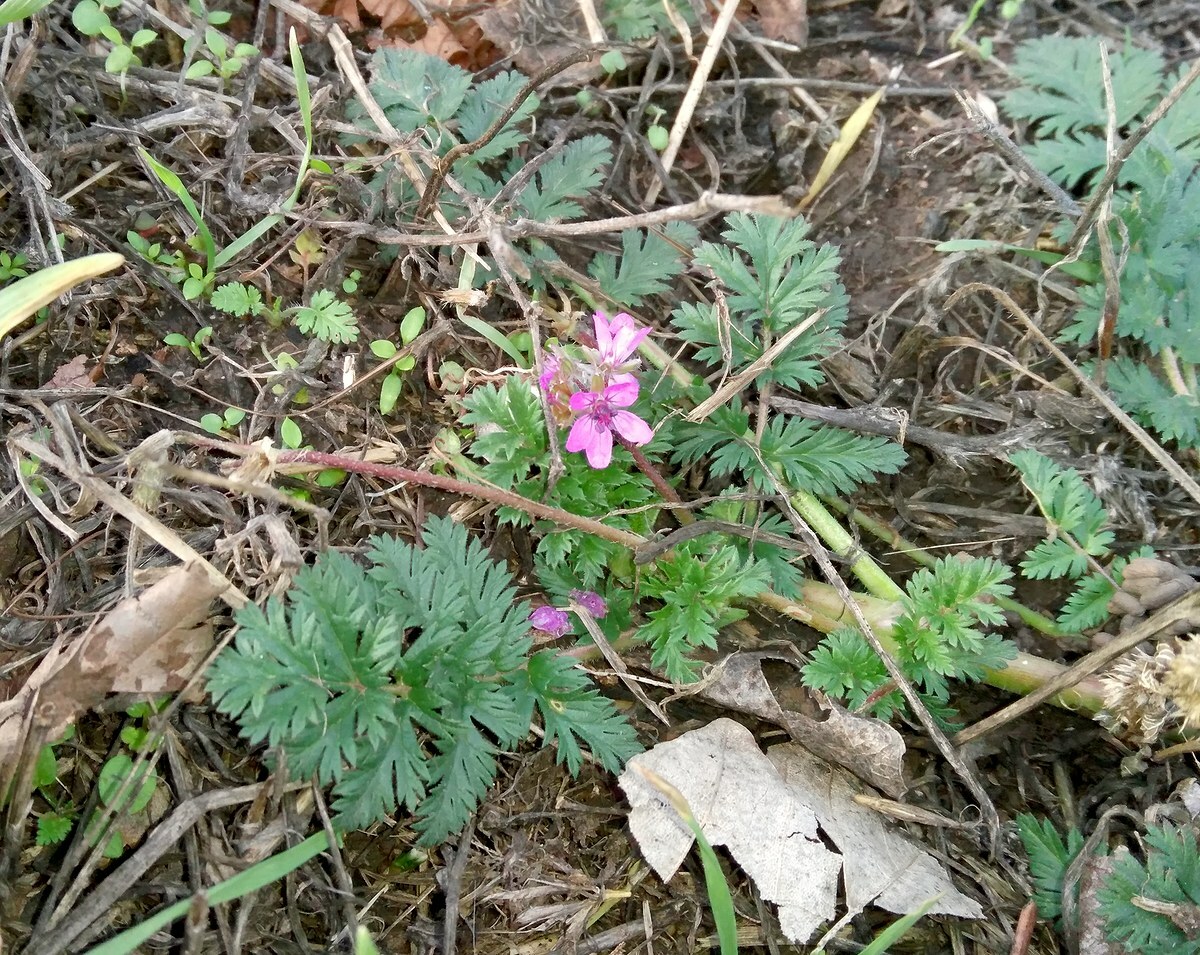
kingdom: Plantae
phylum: Tracheophyta
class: Magnoliopsida
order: Geraniales
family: Geraniaceae
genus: Erodium
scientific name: Erodium cicutarium
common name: Common stork's-bill
